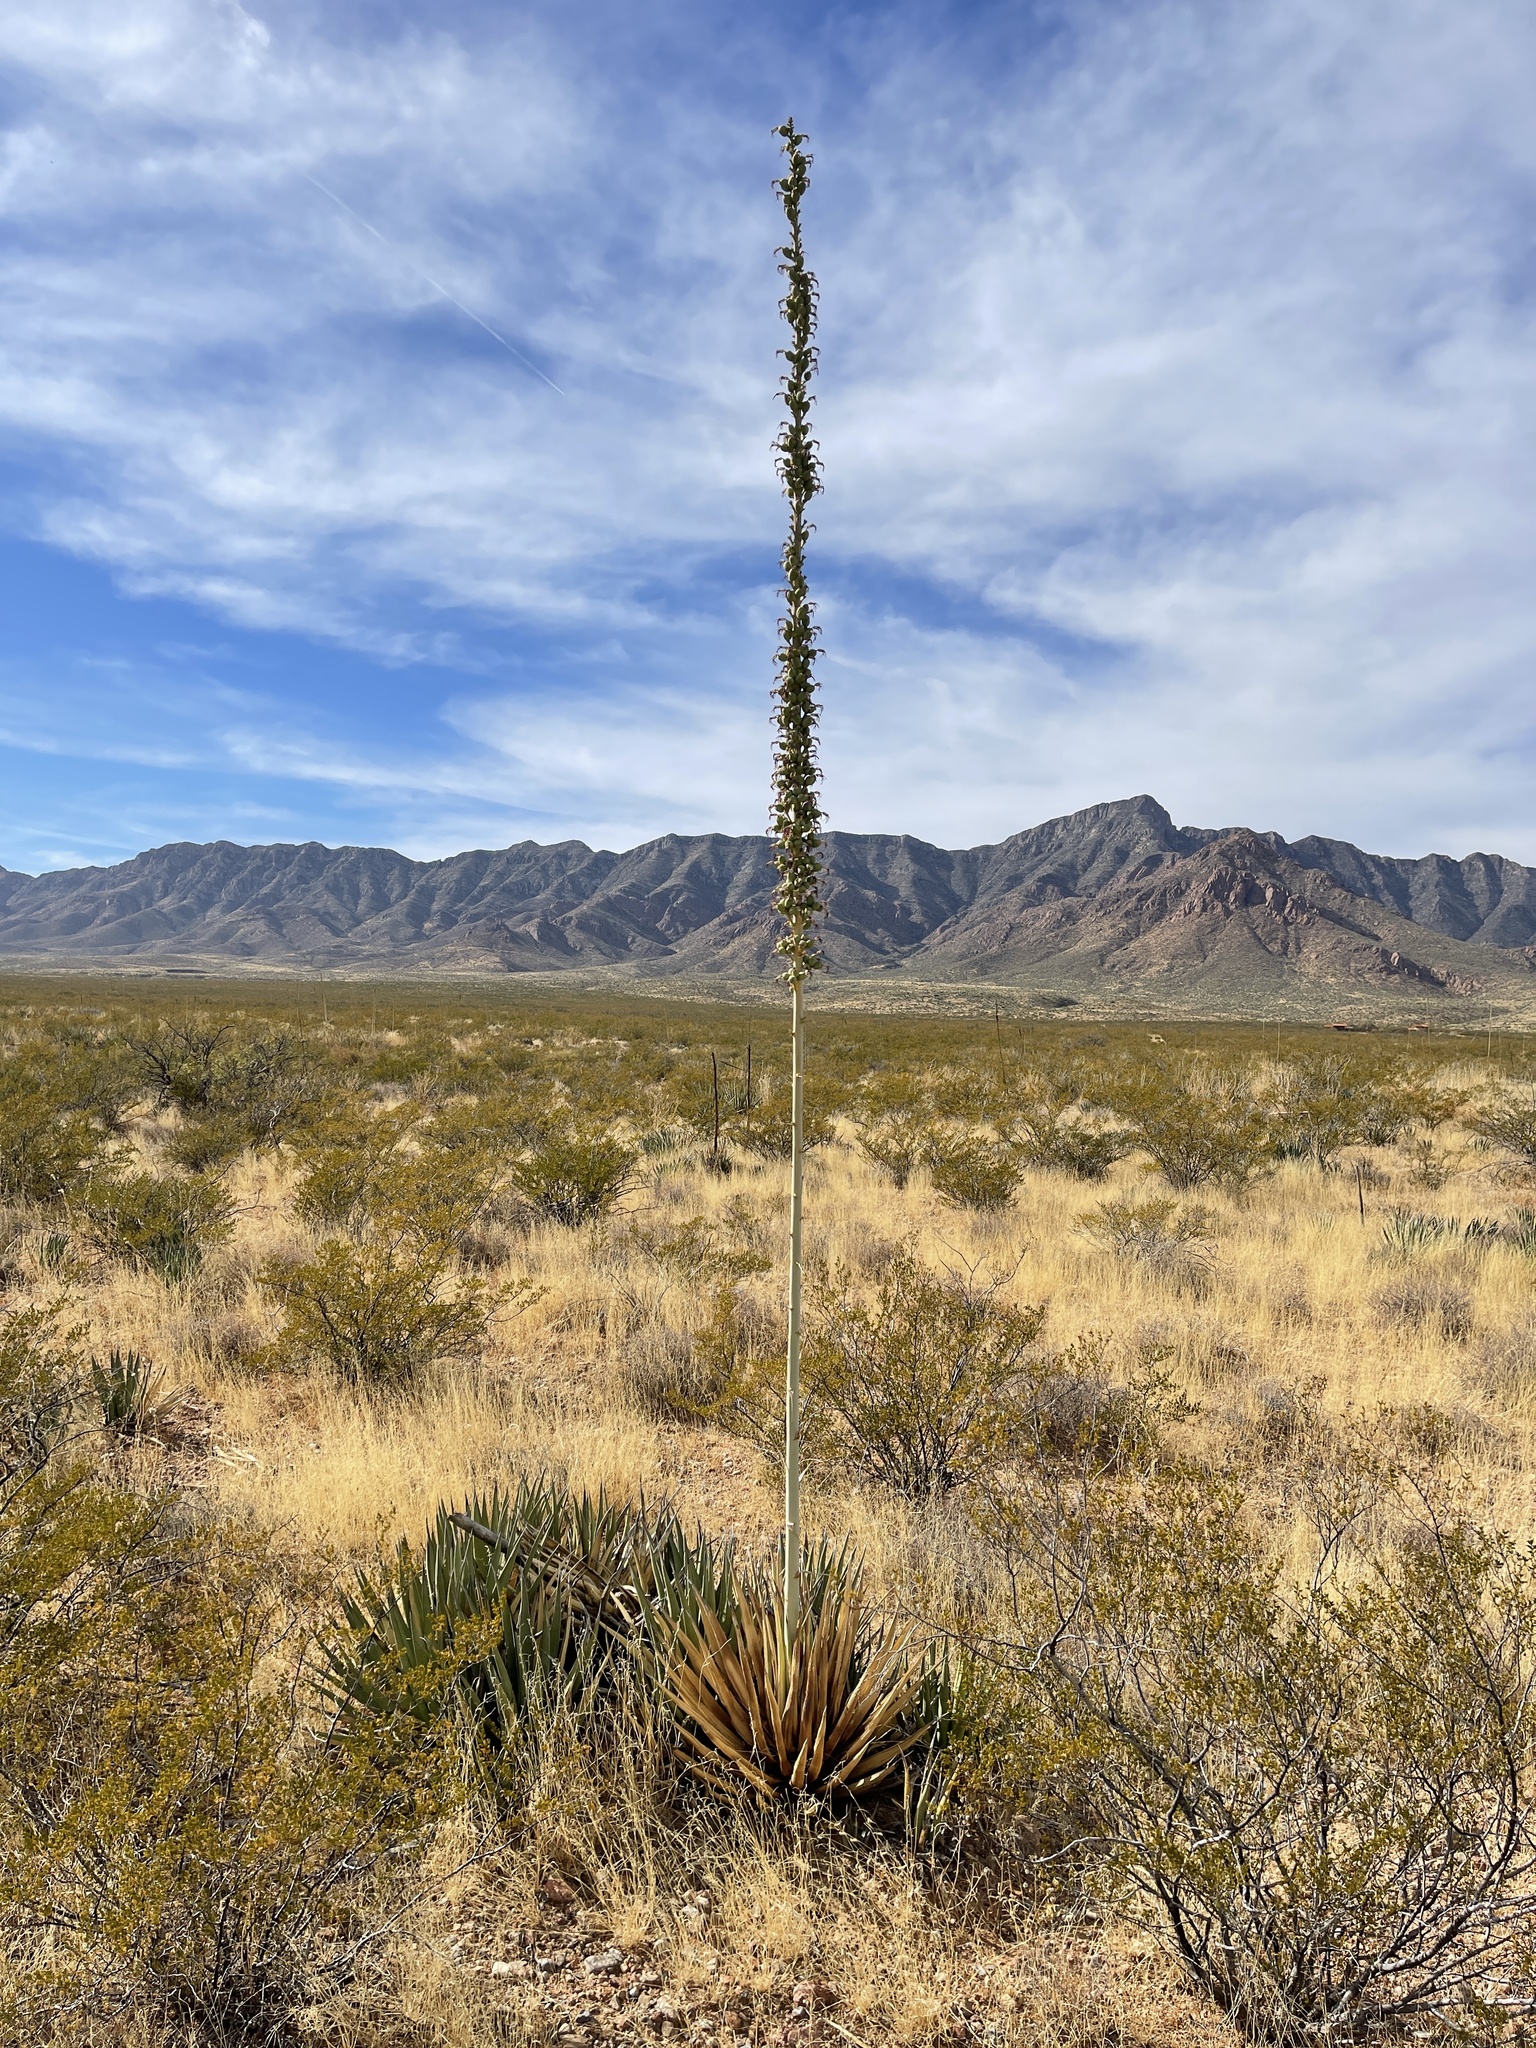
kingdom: Plantae
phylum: Tracheophyta
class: Liliopsida
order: Asparagales
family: Asparagaceae
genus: Agave
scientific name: Agave lechuguilla
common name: Lecheguilla agave
